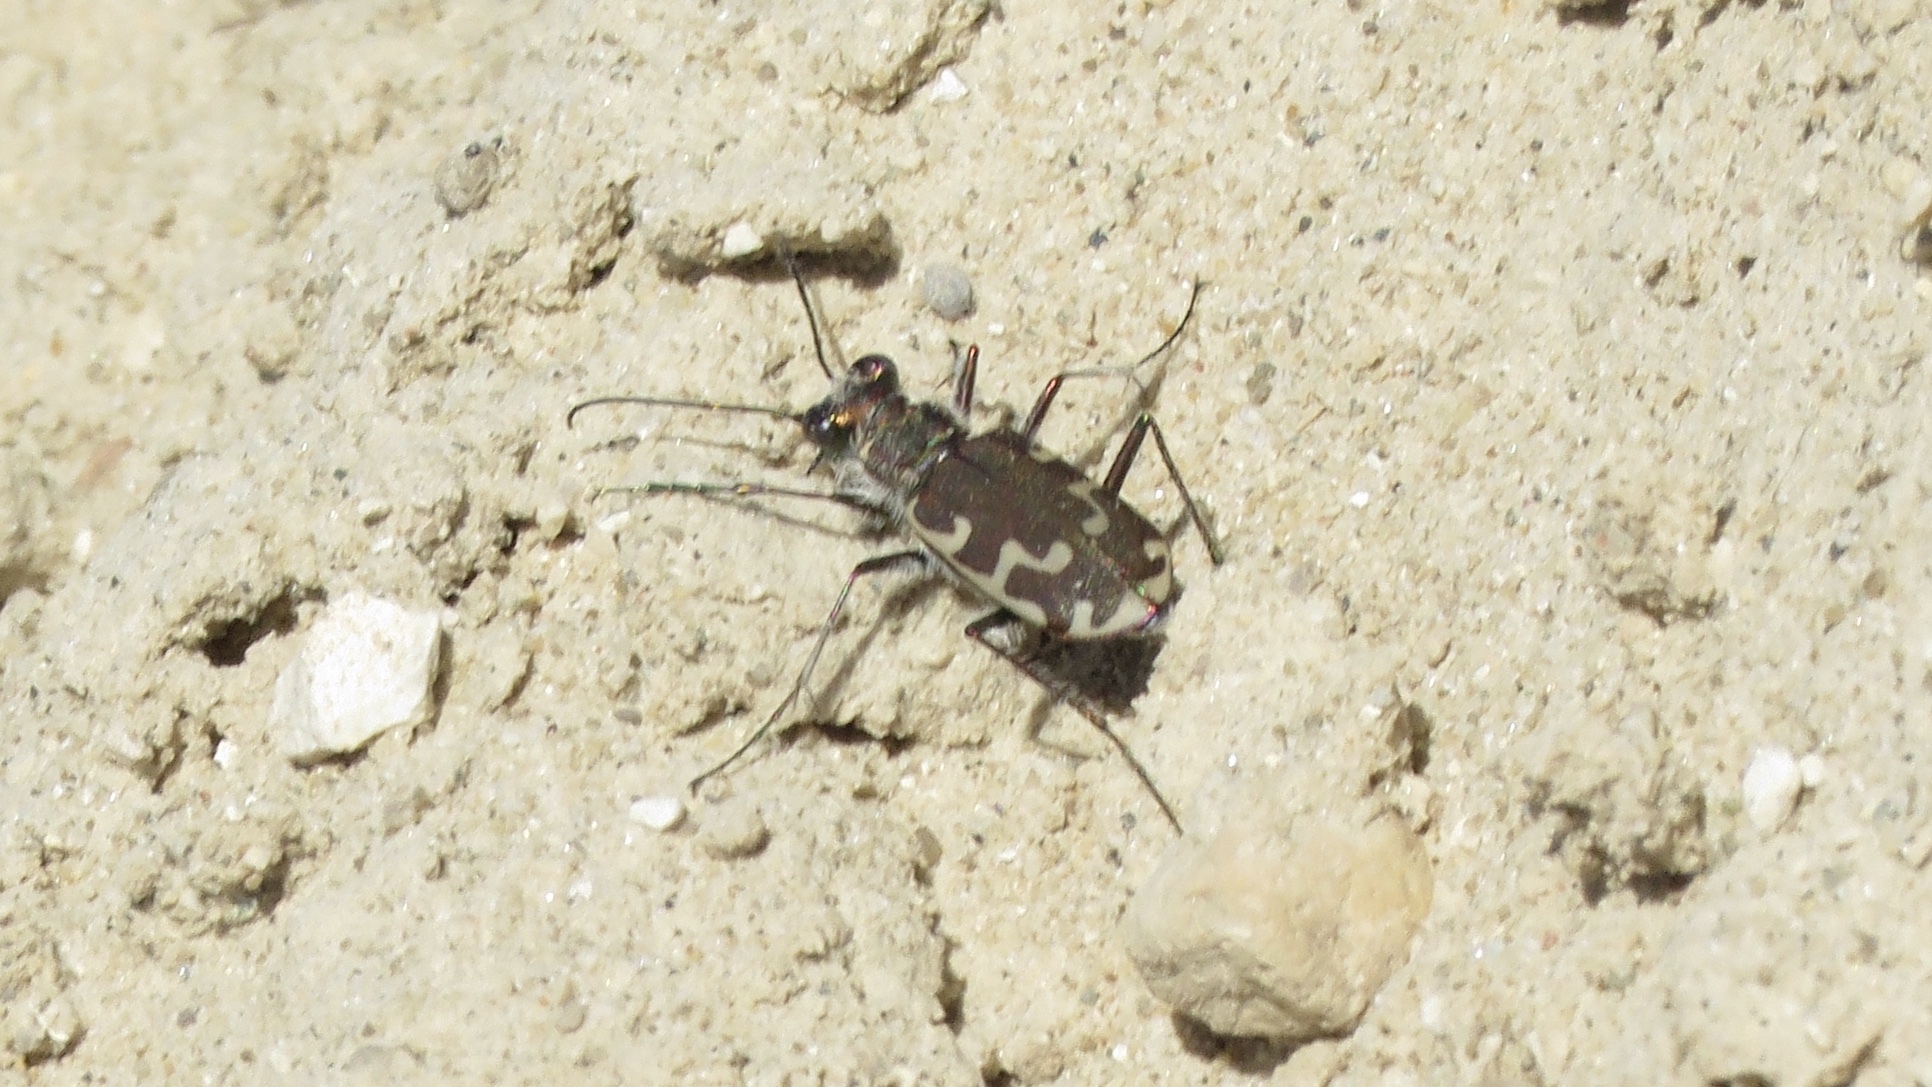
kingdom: Animalia
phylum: Arthropoda
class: Insecta
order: Coleoptera
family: Carabidae
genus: Cicindela
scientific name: Cicindela repanda
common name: Bronzed tiger beetle
